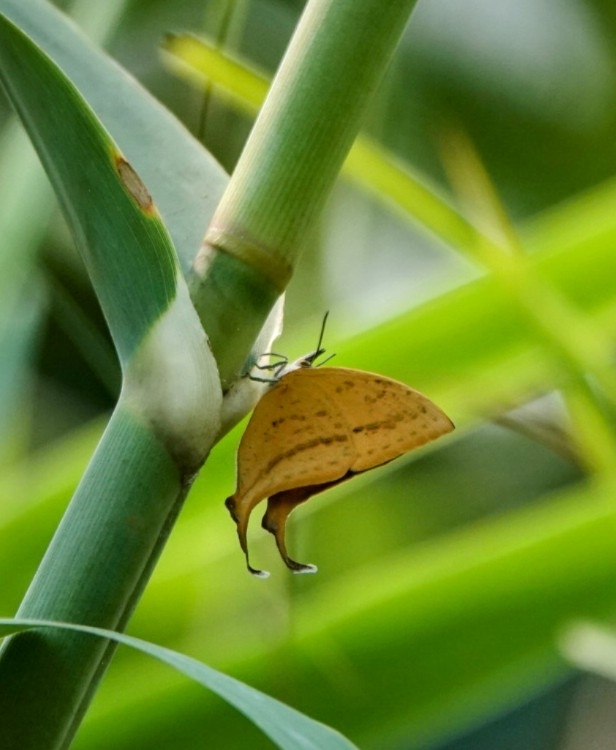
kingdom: Animalia
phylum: Arthropoda
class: Insecta
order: Lepidoptera
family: Lycaenidae
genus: Loxura
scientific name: Loxura atymnus
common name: Common yamfly
